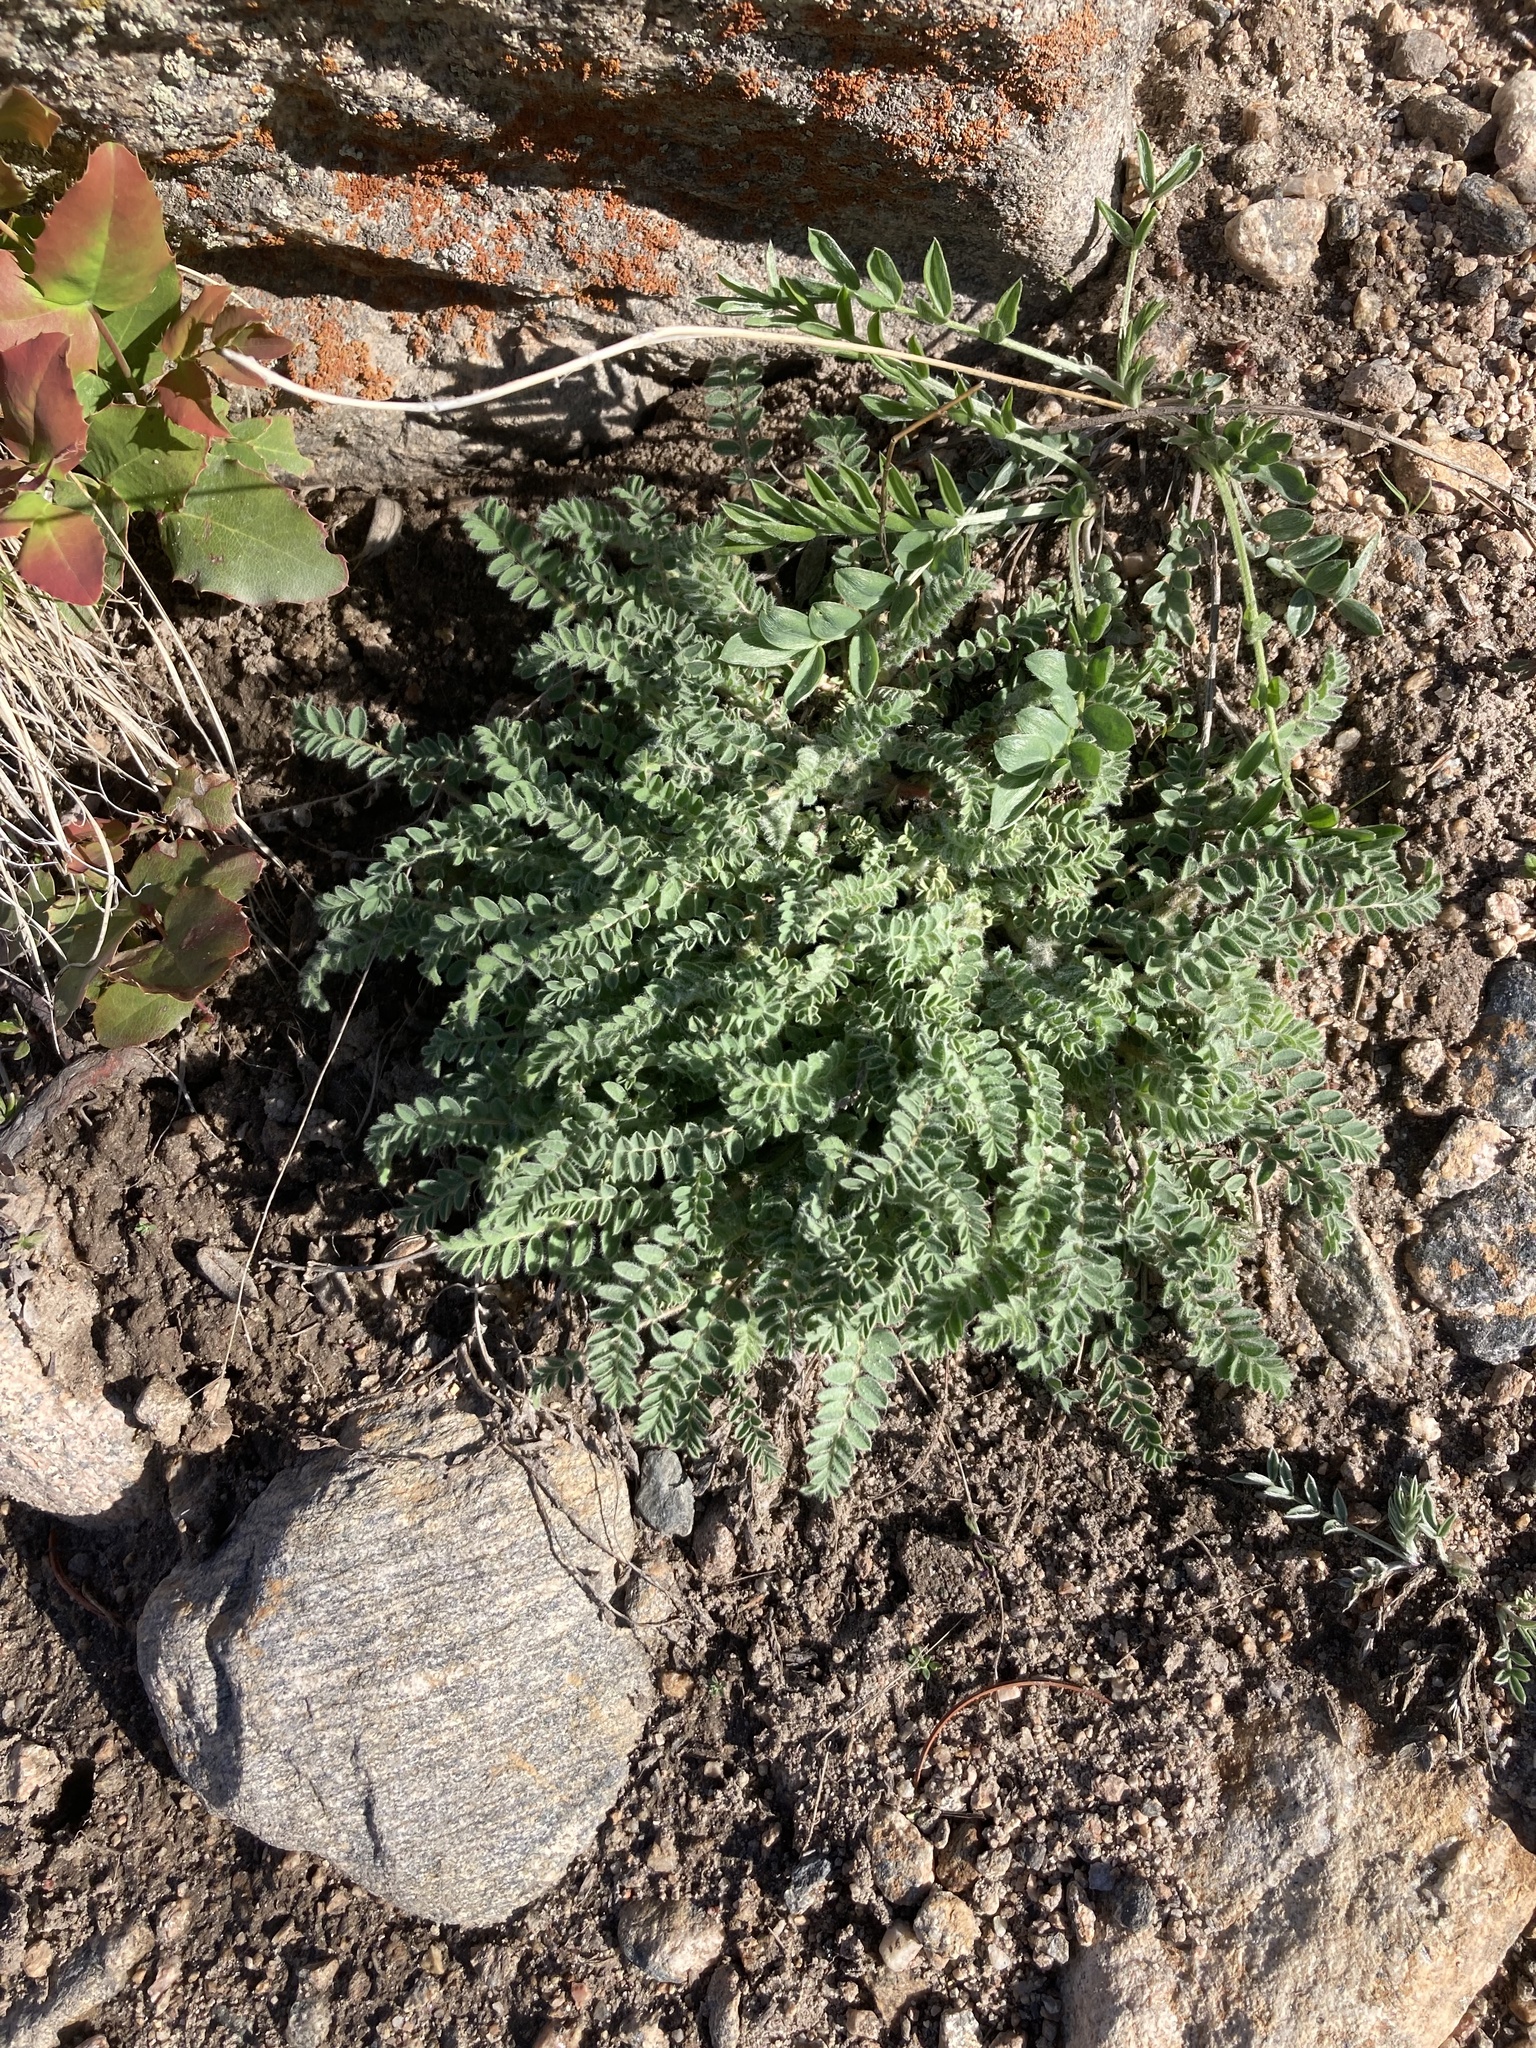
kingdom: Plantae
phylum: Tracheophyta
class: Magnoliopsida
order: Fabales
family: Fabaceae
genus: Astragalus
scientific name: Astragalus parryi
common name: Parry milk-vetch
